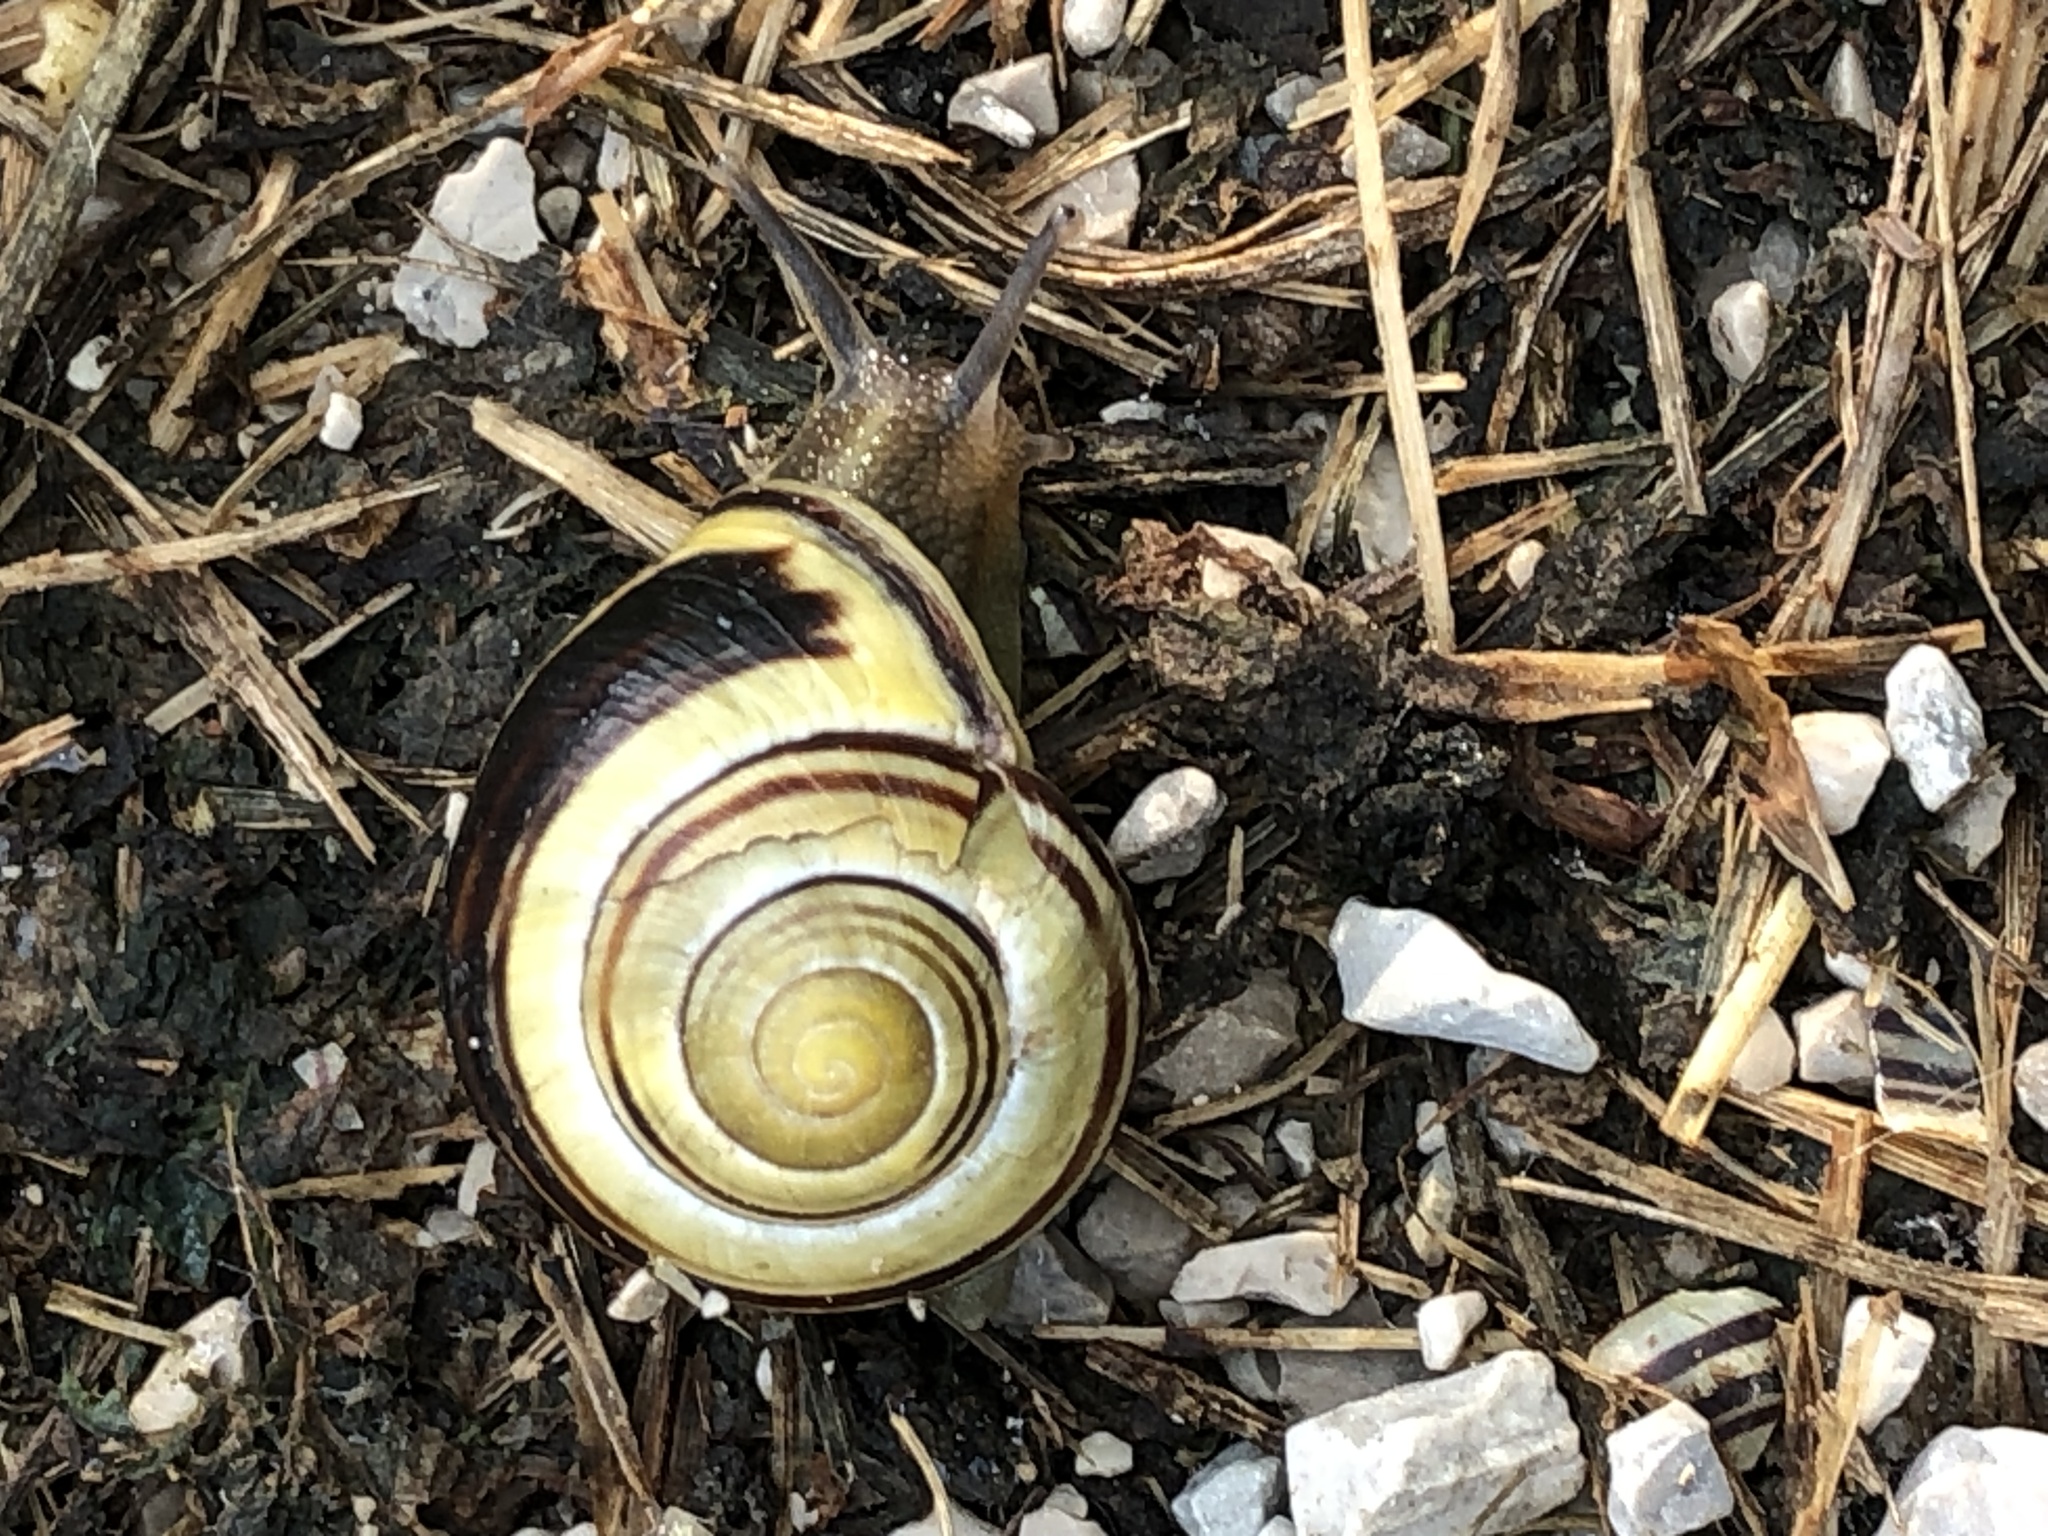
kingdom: Animalia
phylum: Mollusca
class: Gastropoda
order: Stylommatophora
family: Helicidae
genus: Cepaea
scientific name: Cepaea nemoralis
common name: Grovesnail
